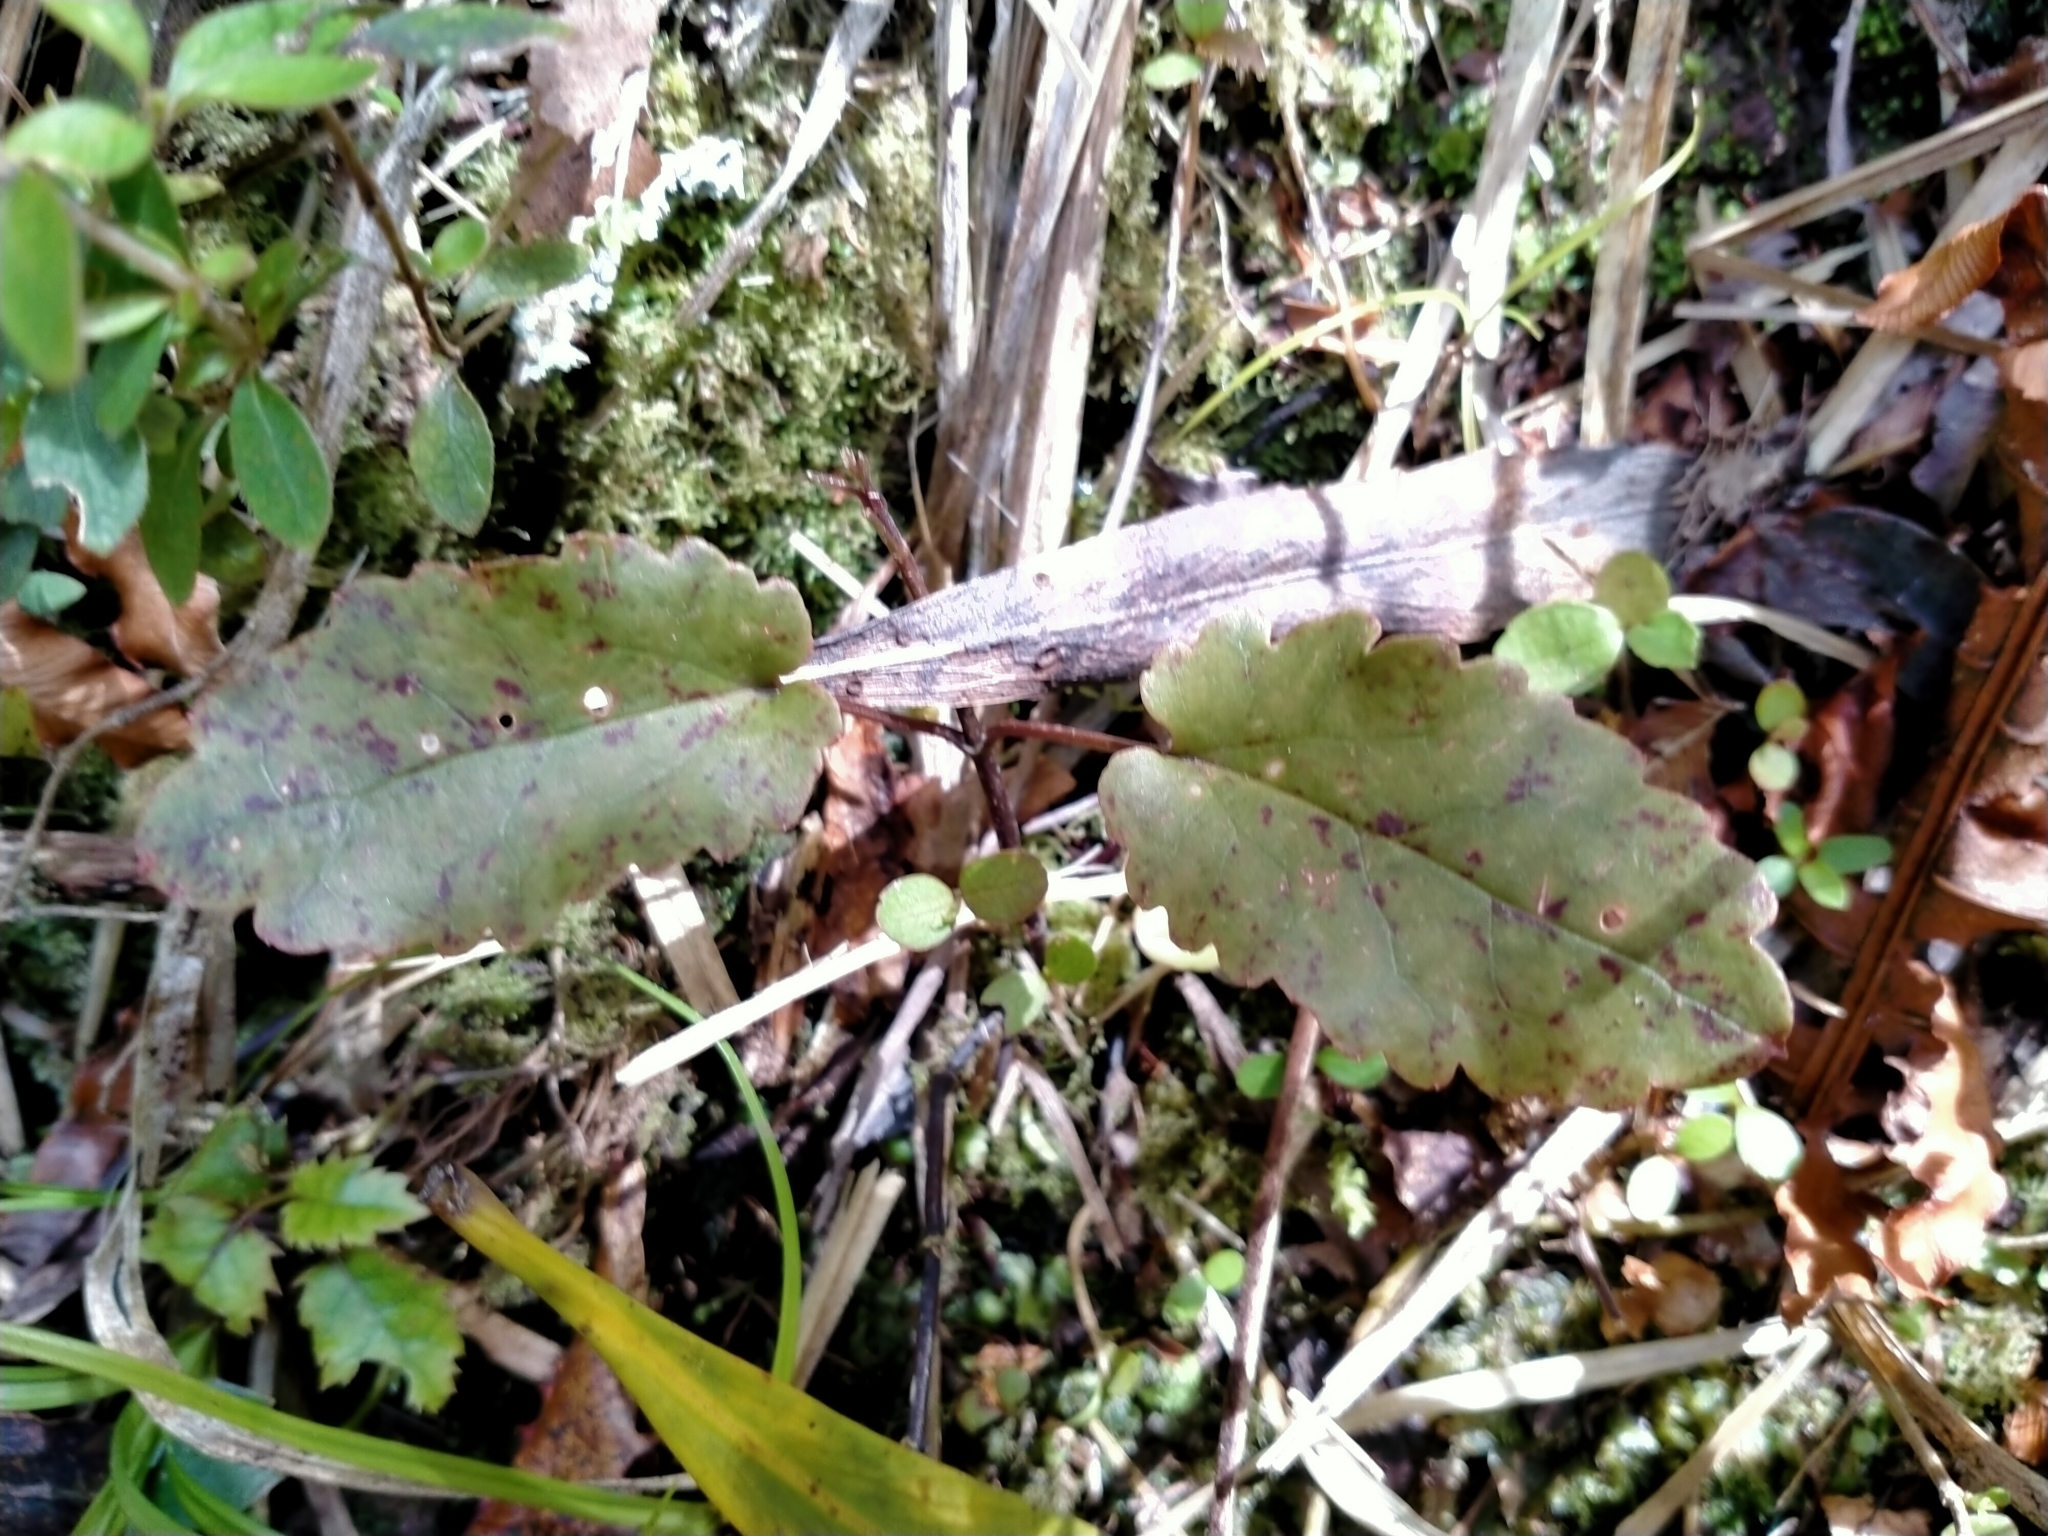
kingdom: Plantae
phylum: Tracheophyta
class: Magnoliopsida
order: Ranunculales
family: Ranunculaceae
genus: Clematis
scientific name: Clematis paniculata
